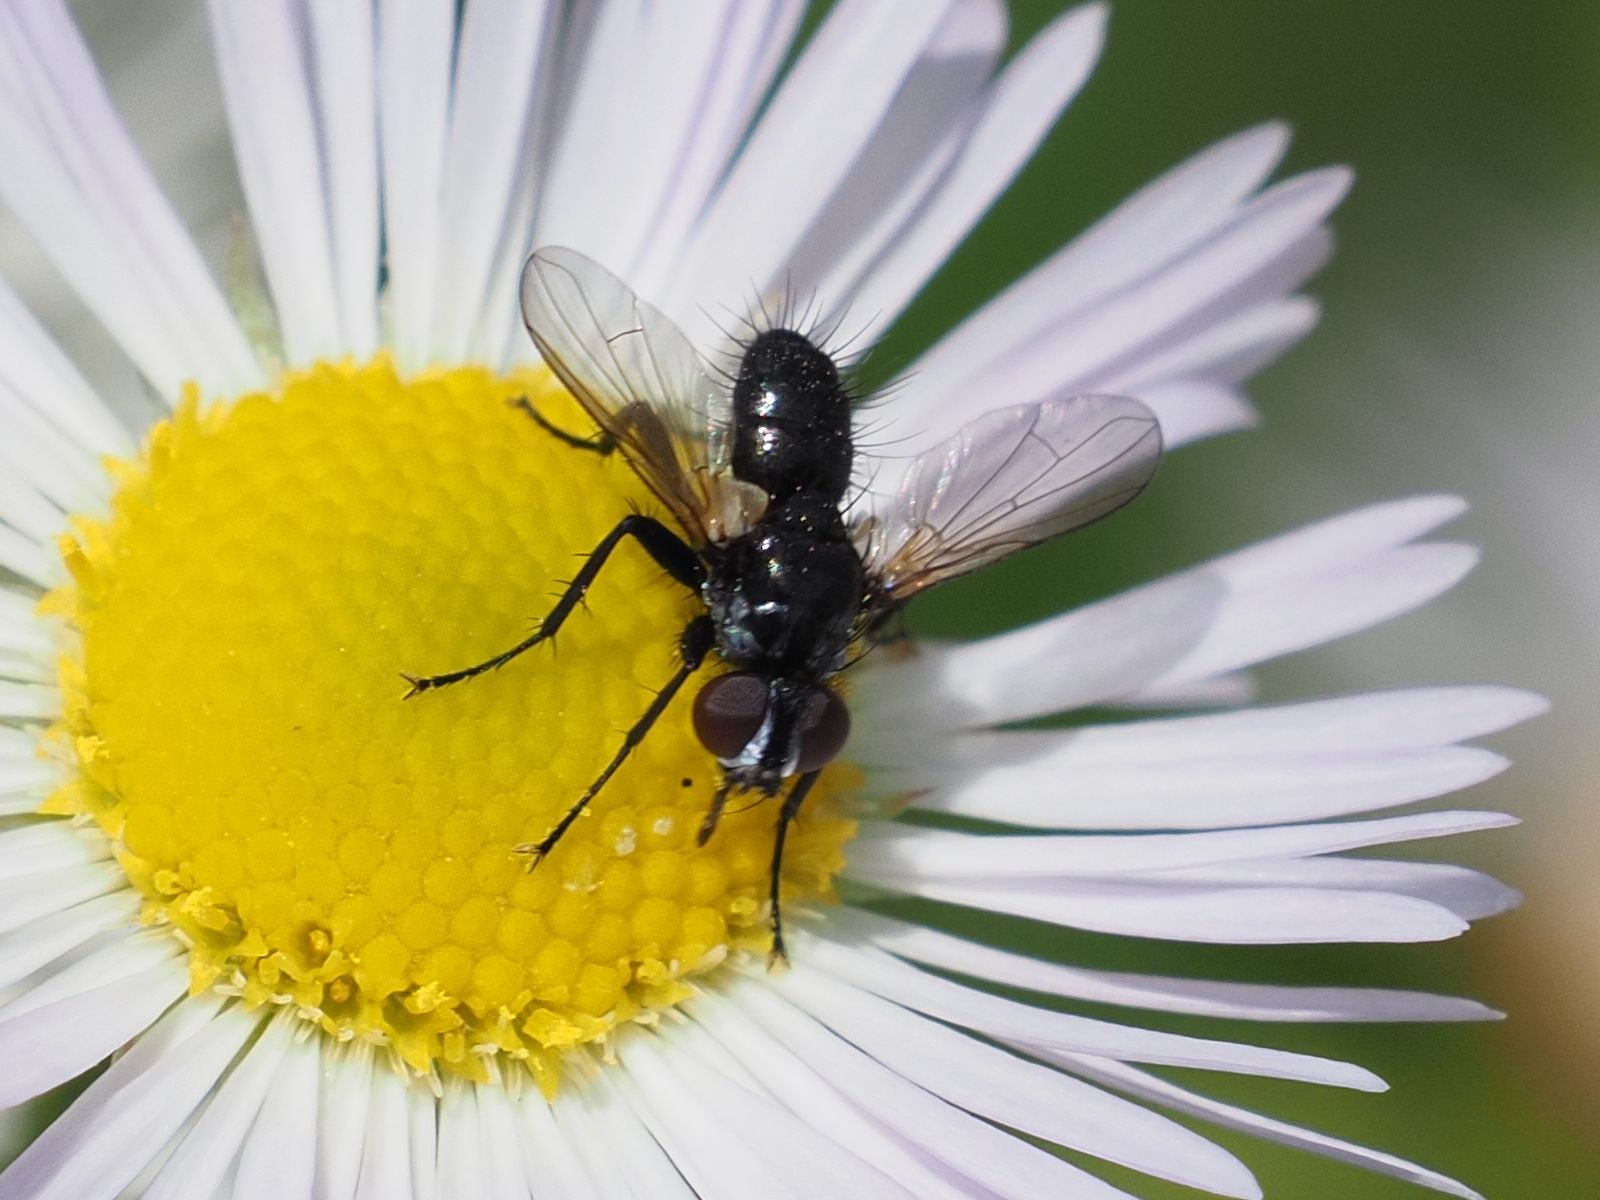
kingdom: Animalia
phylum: Arthropoda
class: Insecta
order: Diptera
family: Tachinidae
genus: Phania
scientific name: Phania funesta
